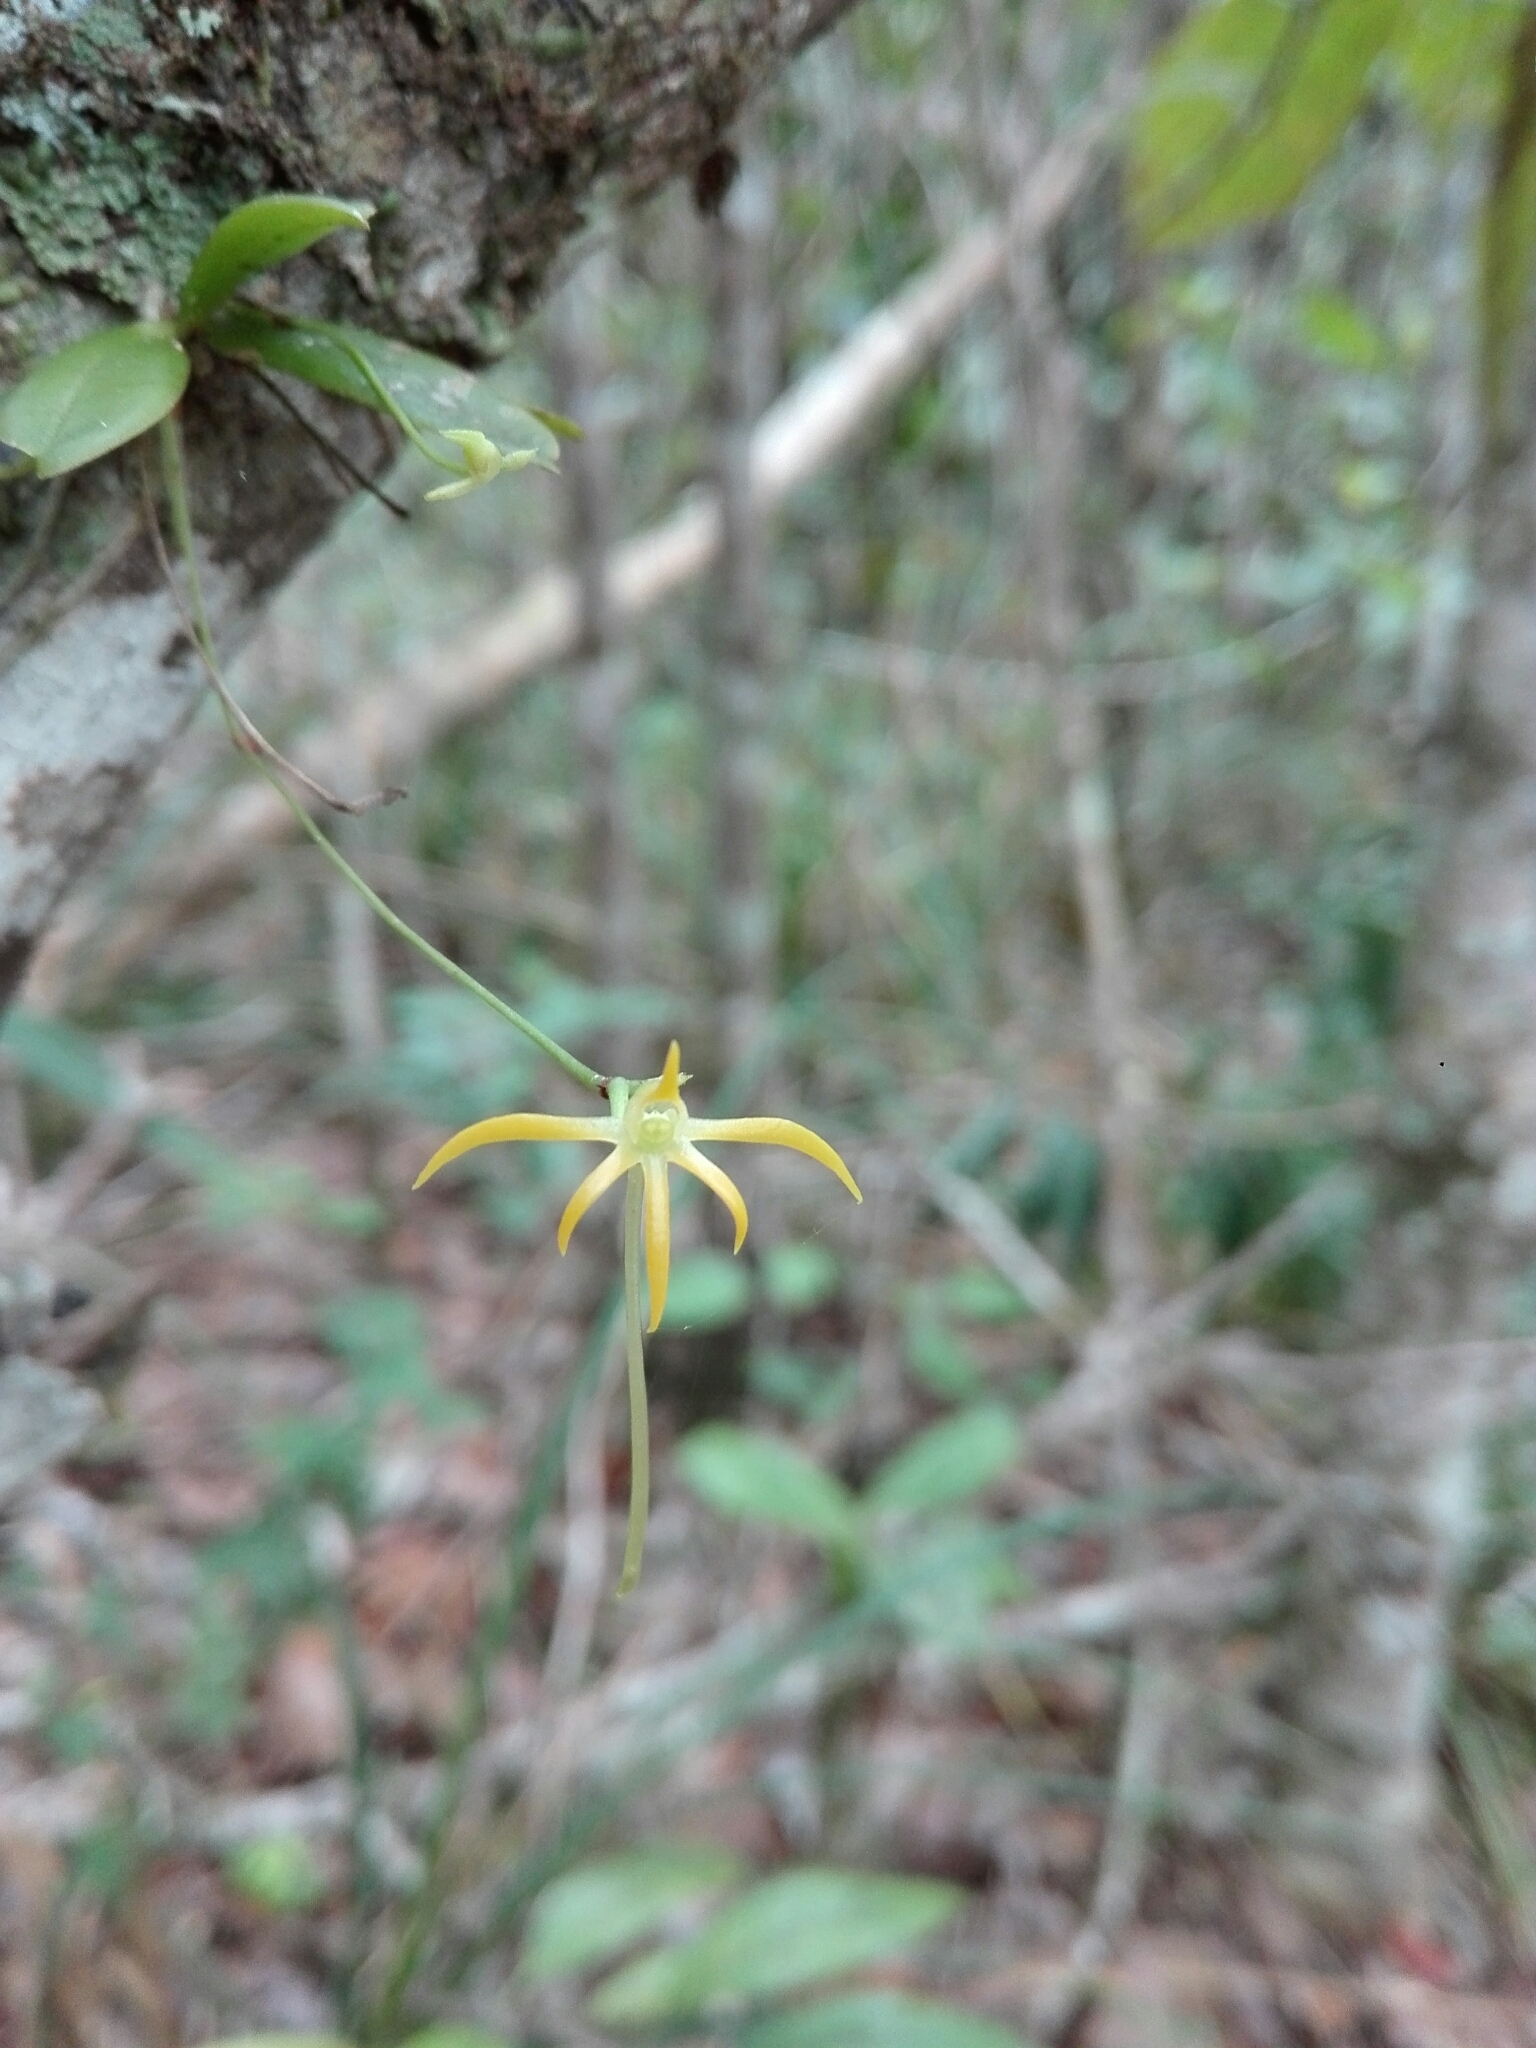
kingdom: Plantae
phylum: Tracheophyta
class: Liliopsida
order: Asparagales
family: Orchidaceae
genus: Angraecum
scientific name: Angraecum rhynchoglossum
